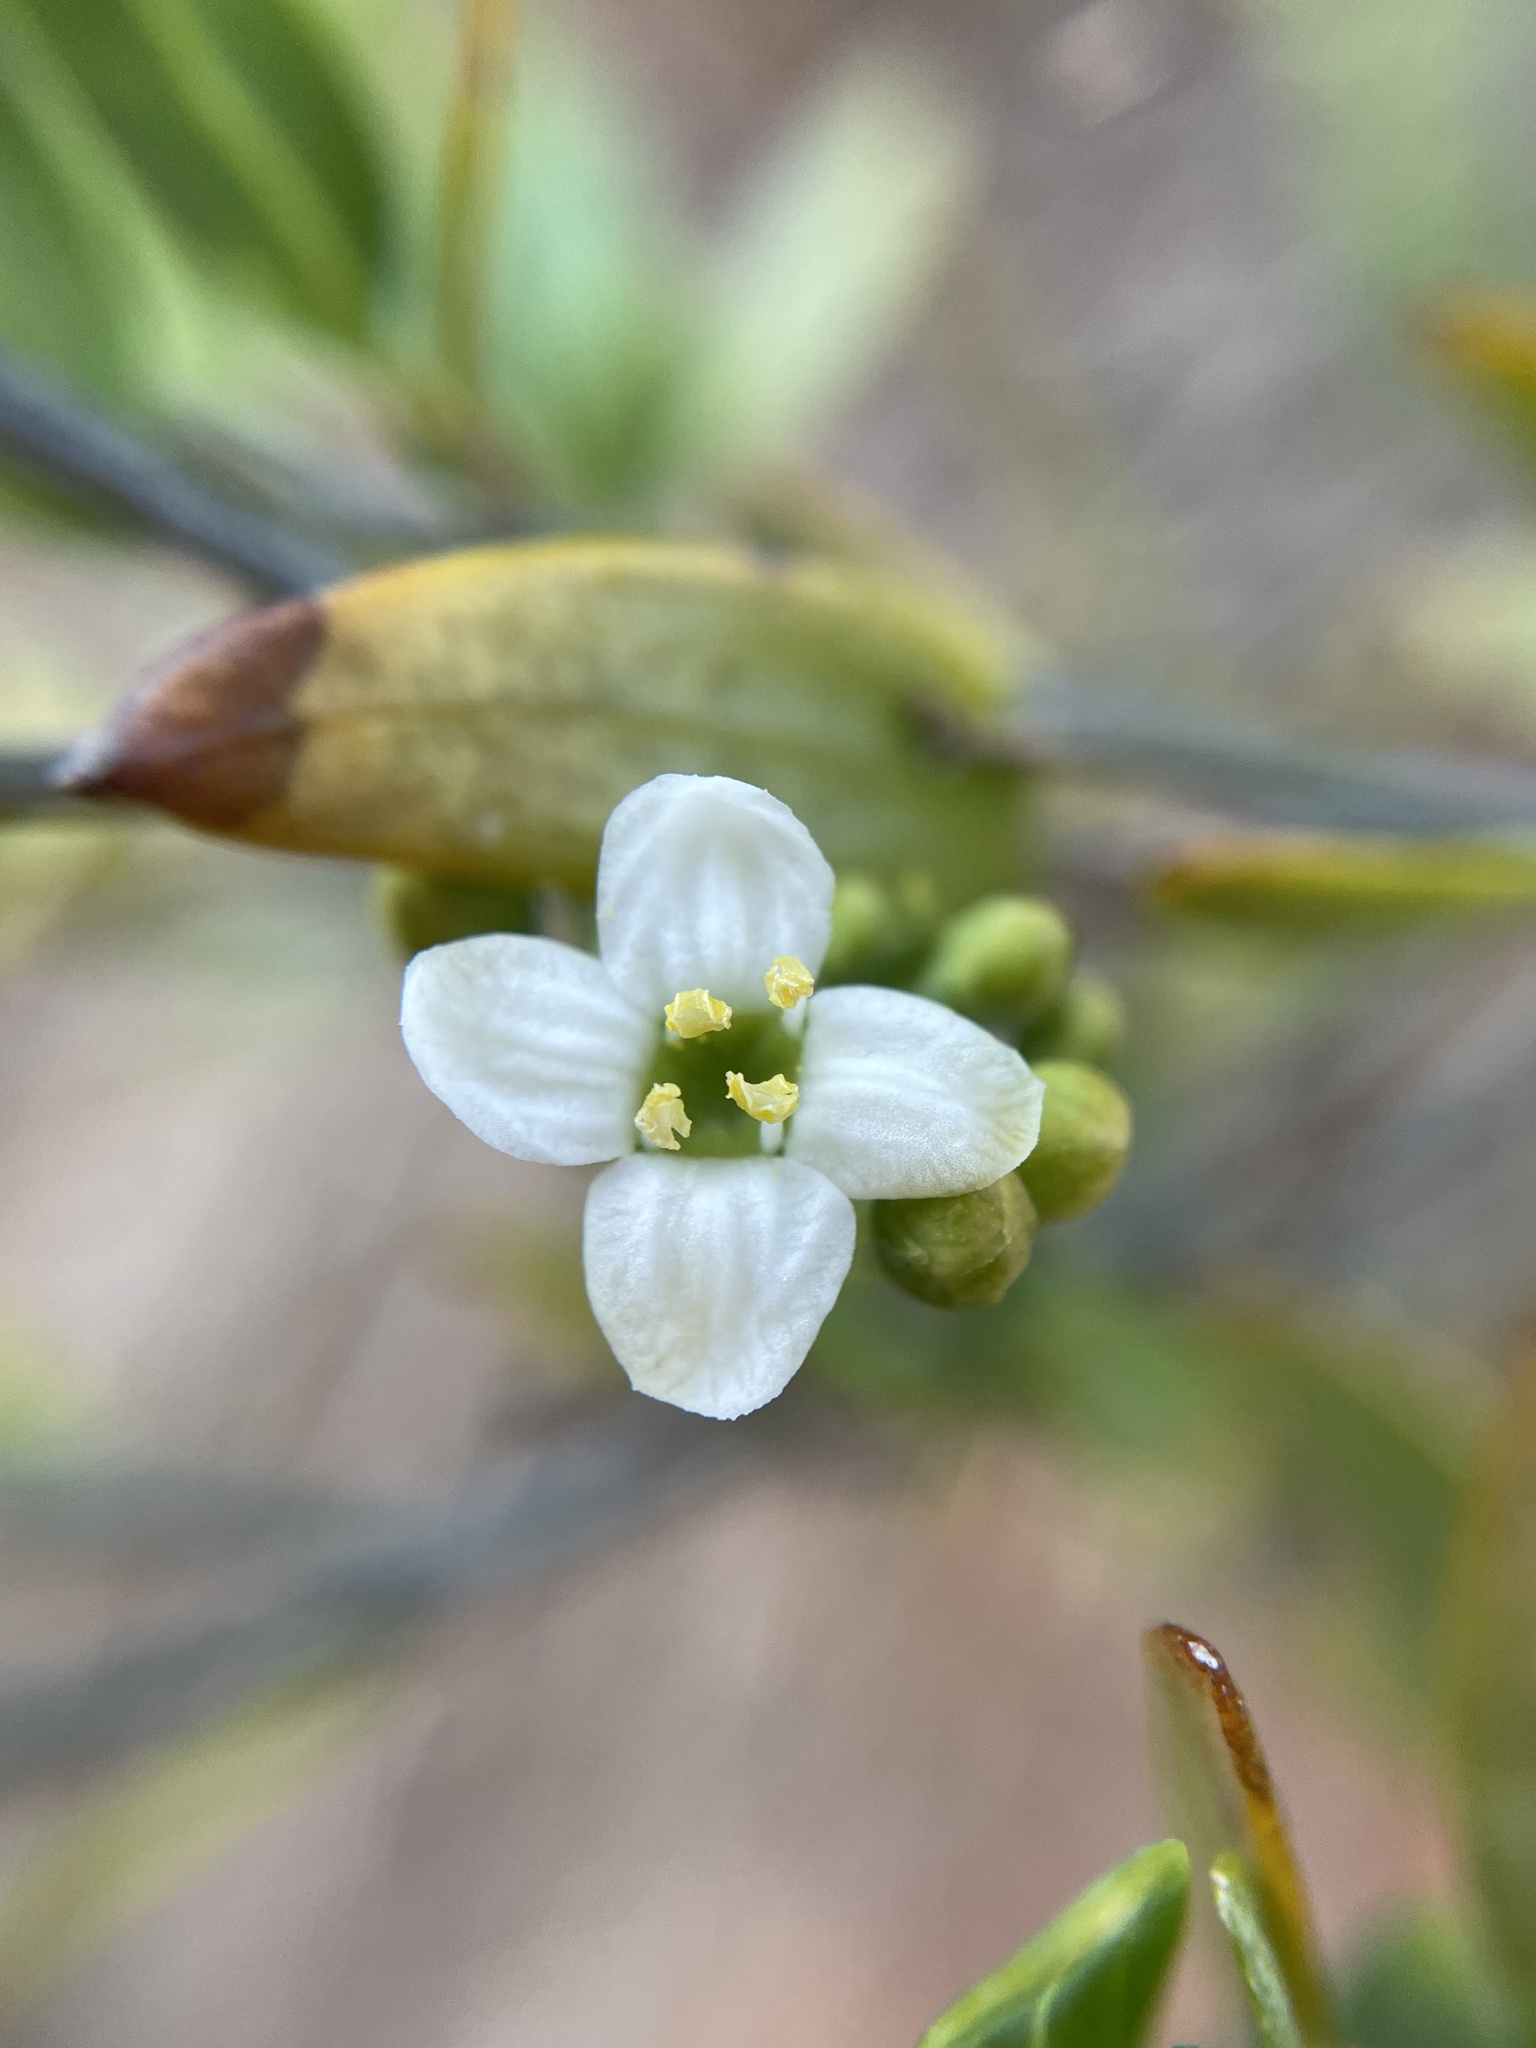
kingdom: Plantae
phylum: Tracheophyta
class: Magnoliopsida
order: Solanales
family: Montiniaceae
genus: Montinia
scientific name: Montinia caryophyllacea
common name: Wild clove-bush
